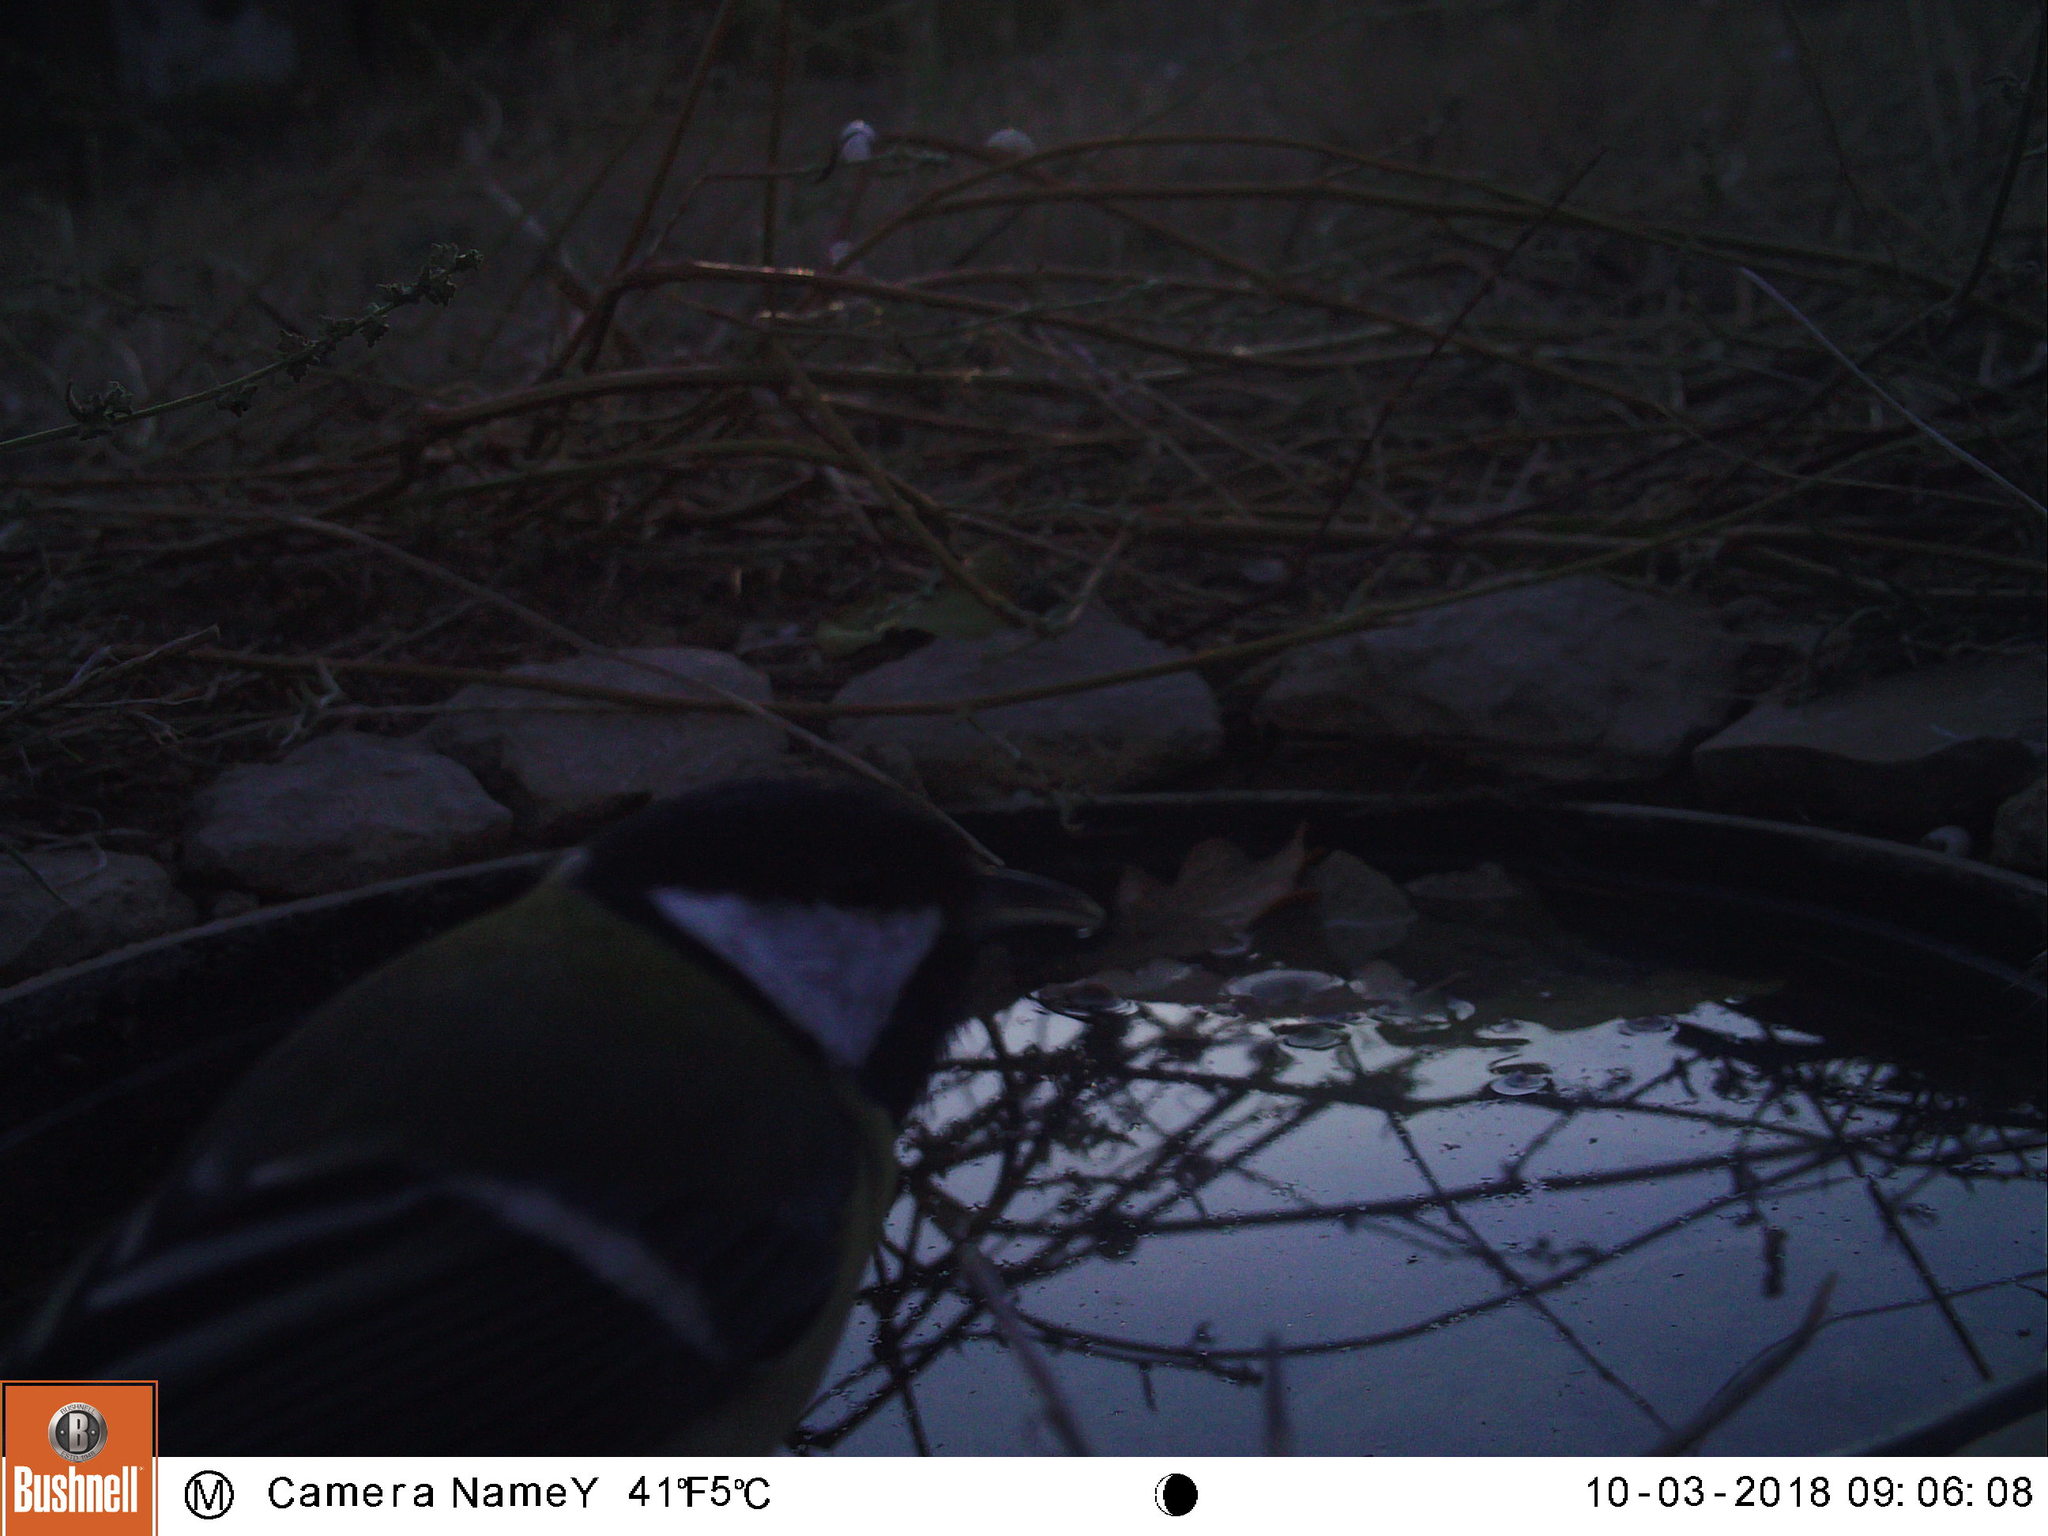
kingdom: Animalia
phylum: Chordata
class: Aves
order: Passeriformes
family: Paridae
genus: Parus
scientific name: Parus major
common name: Great tit
